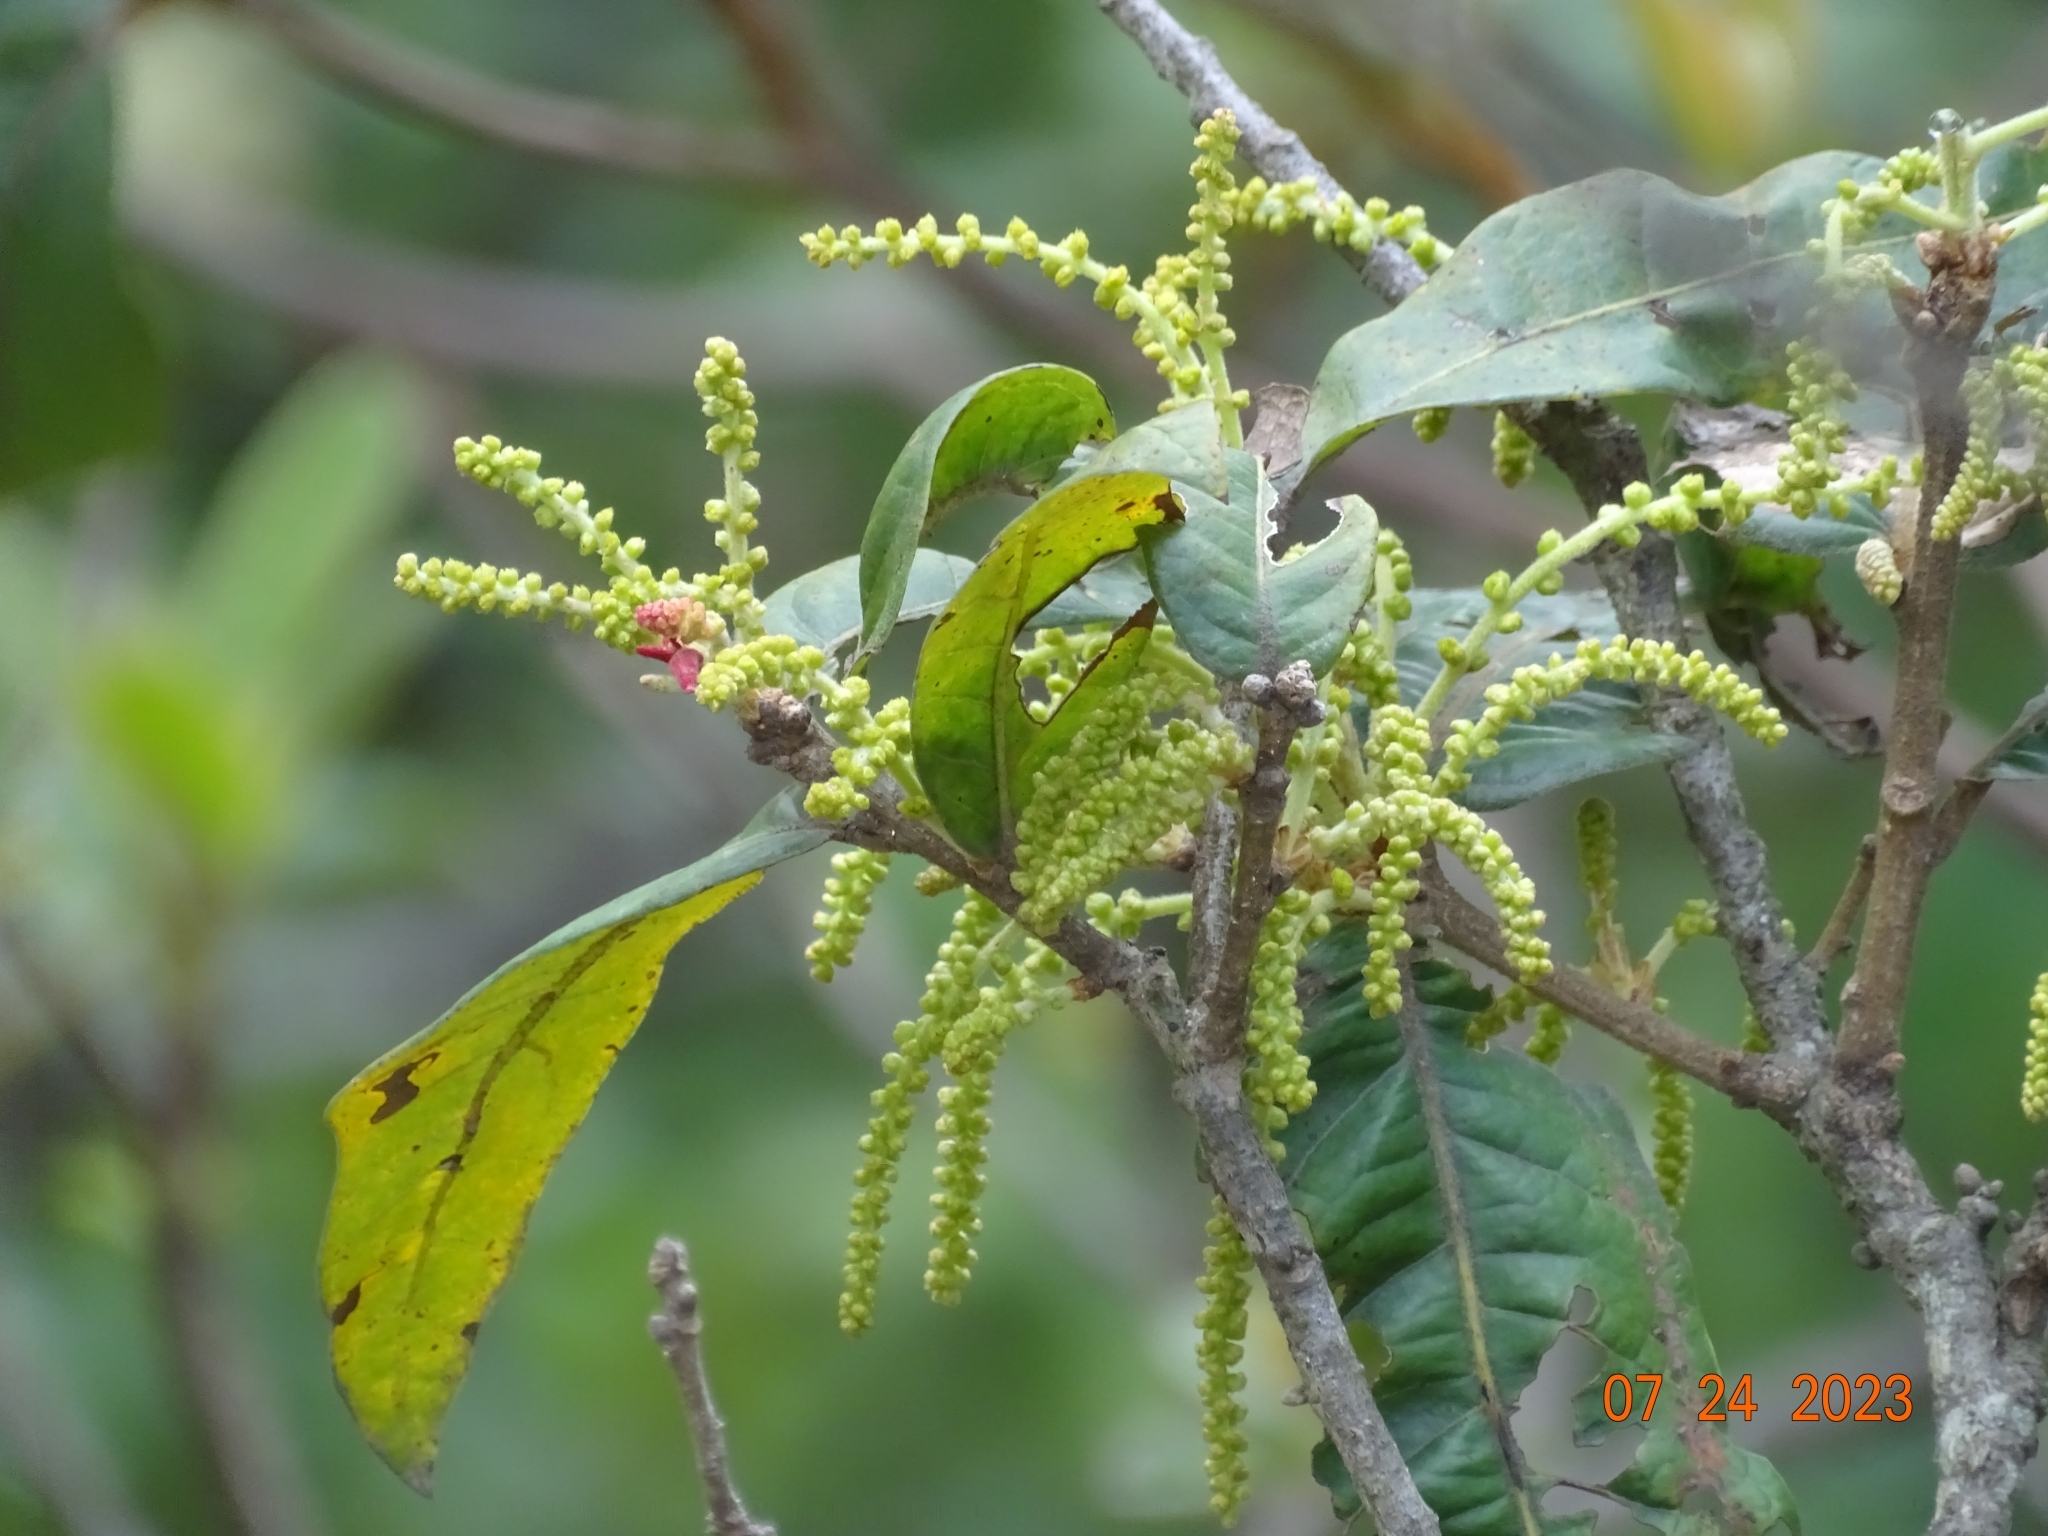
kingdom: Plantae
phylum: Tracheophyta
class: Magnoliopsida
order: Fagales
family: Fagaceae
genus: Quercus
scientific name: Quercus elliptica
